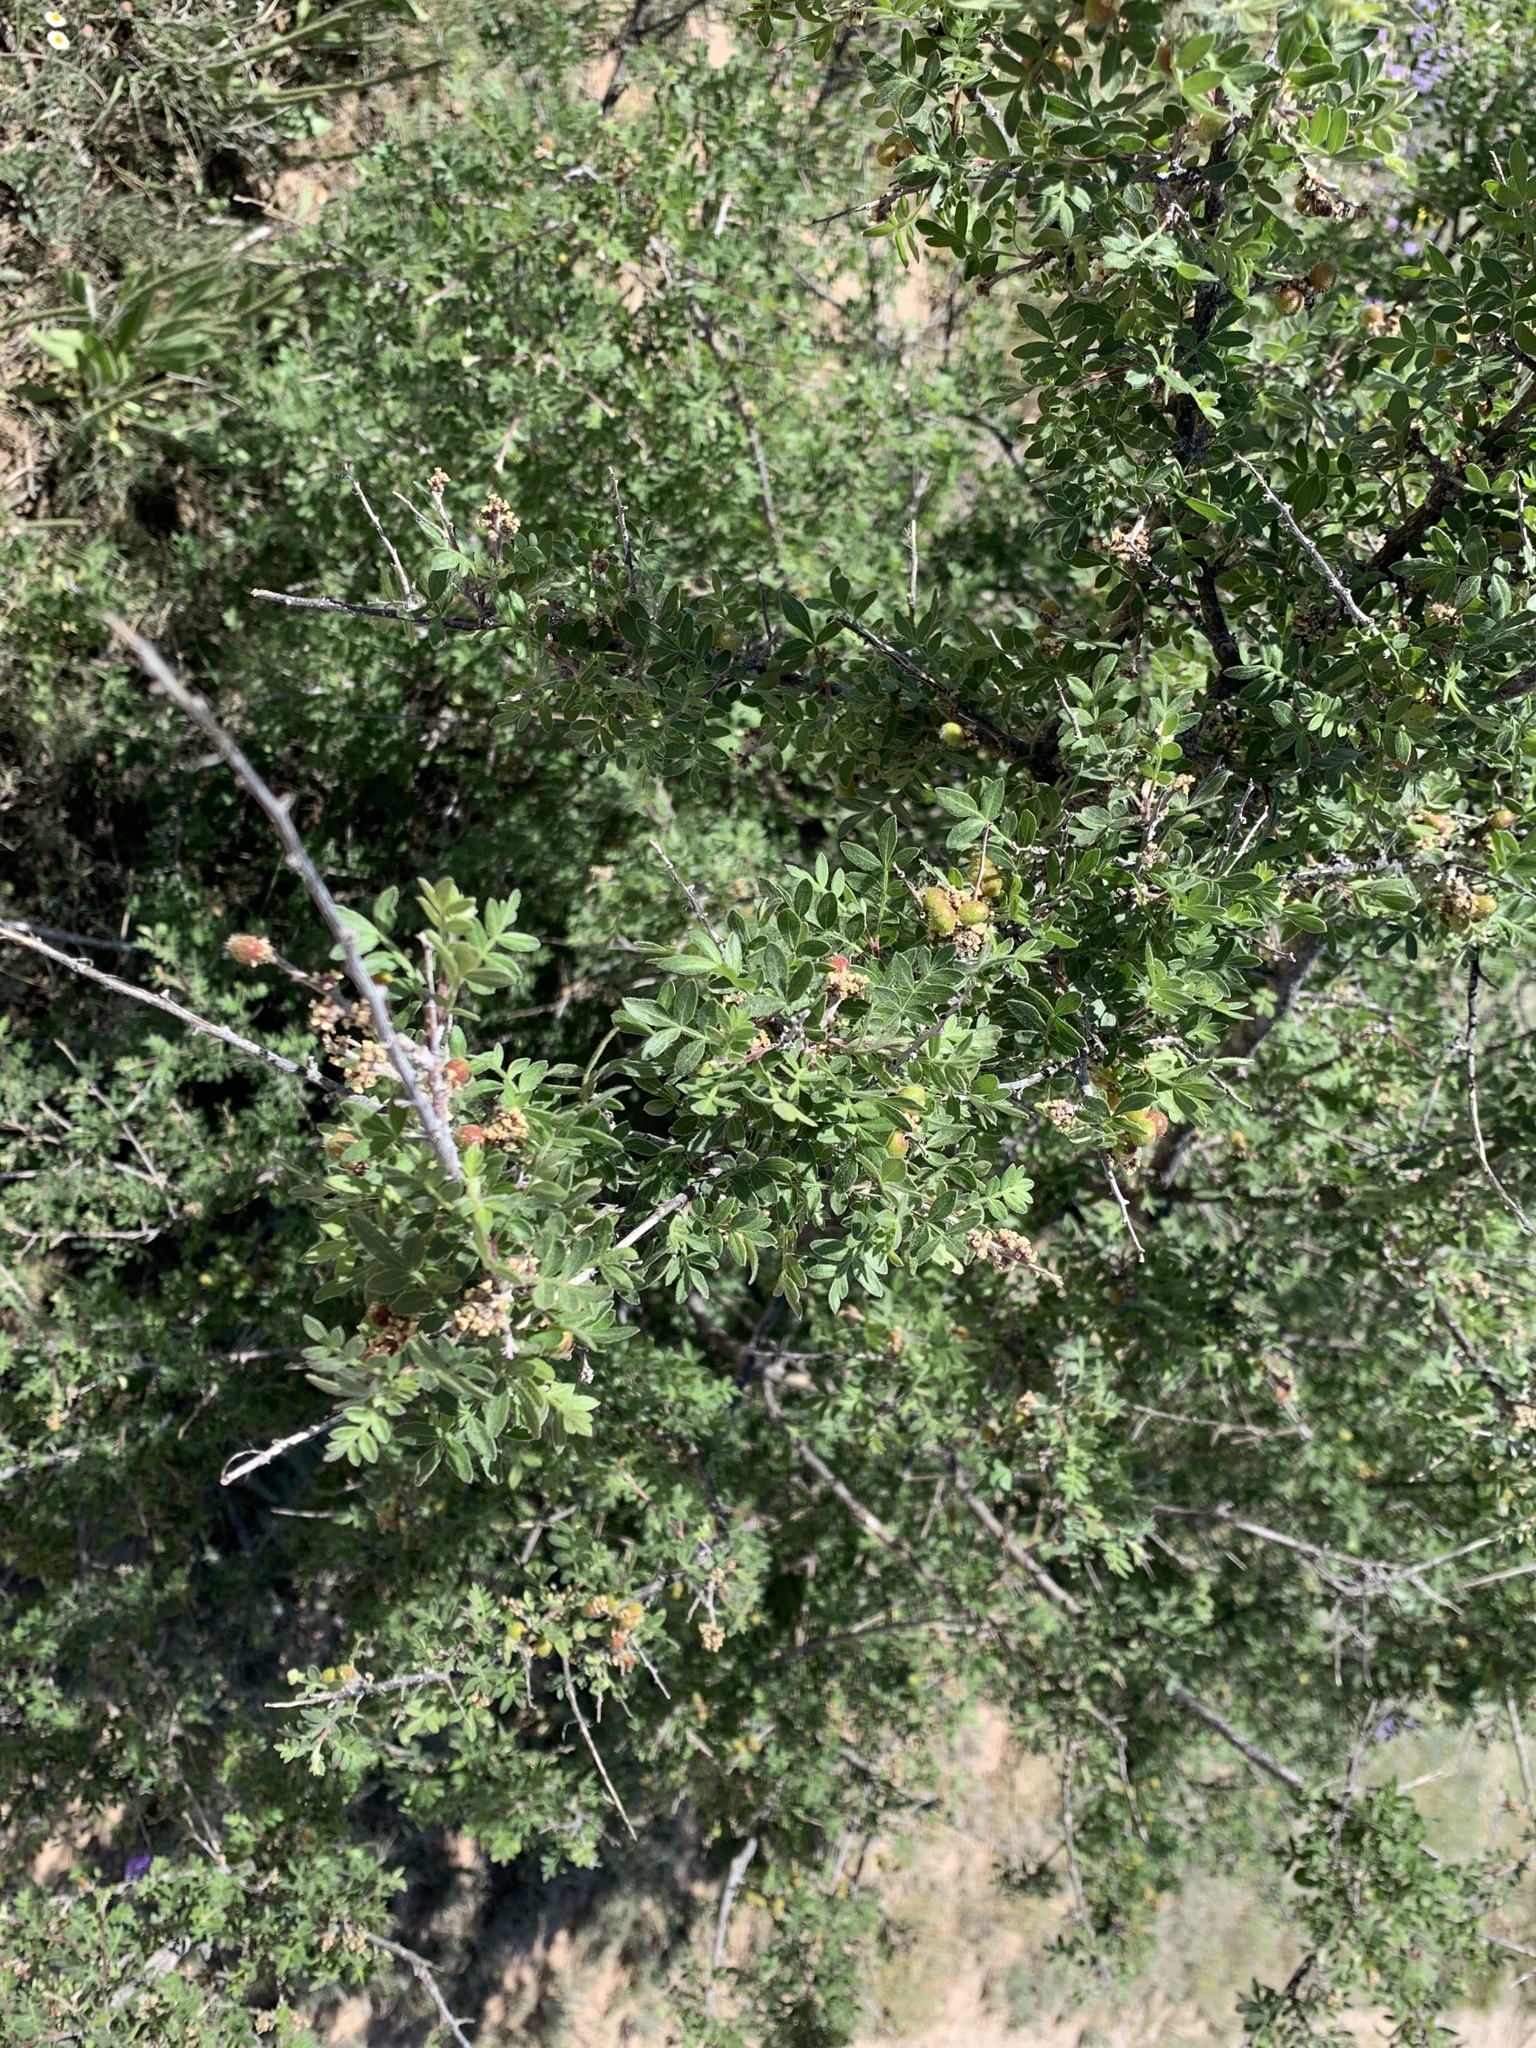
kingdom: Plantae
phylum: Tracheophyta
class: Magnoliopsida
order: Sapindales
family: Anacardiaceae
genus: Rhus
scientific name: Rhus microphylla
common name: Desert sumac
